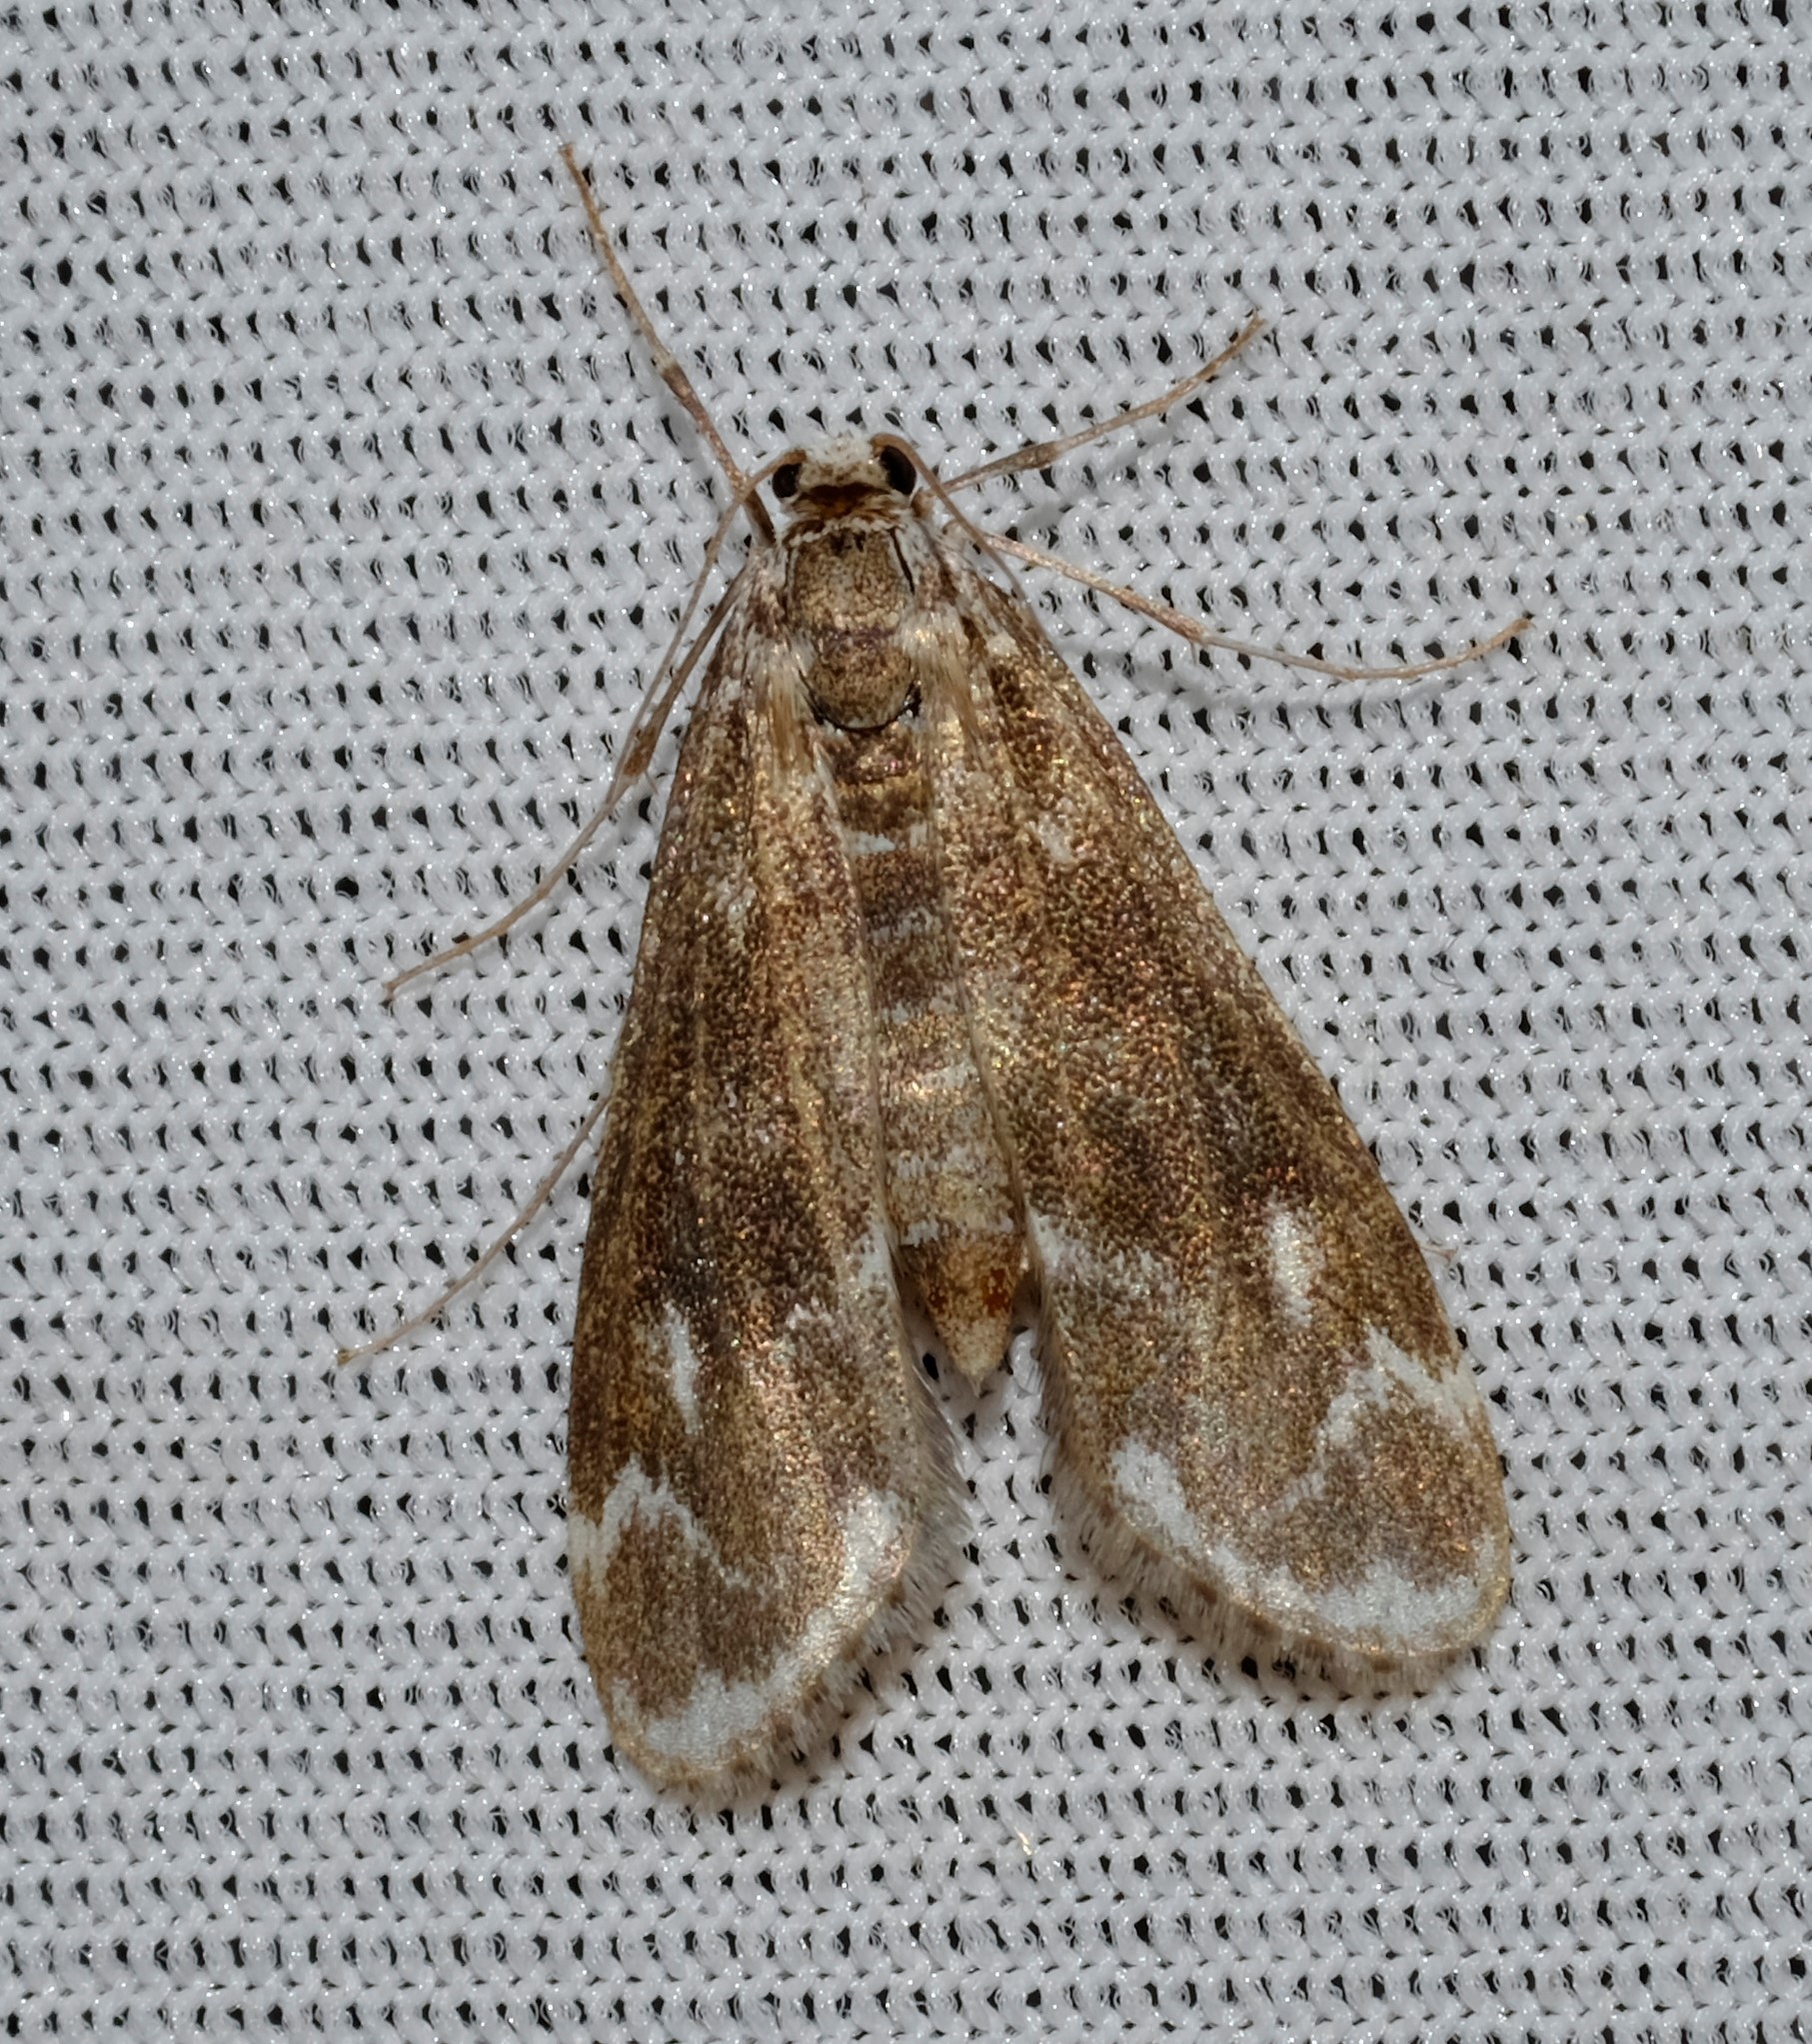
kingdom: Animalia
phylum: Arthropoda
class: Insecta
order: Lepidoptera
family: Crambidae
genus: Hygraula
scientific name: Hygraula nitens
